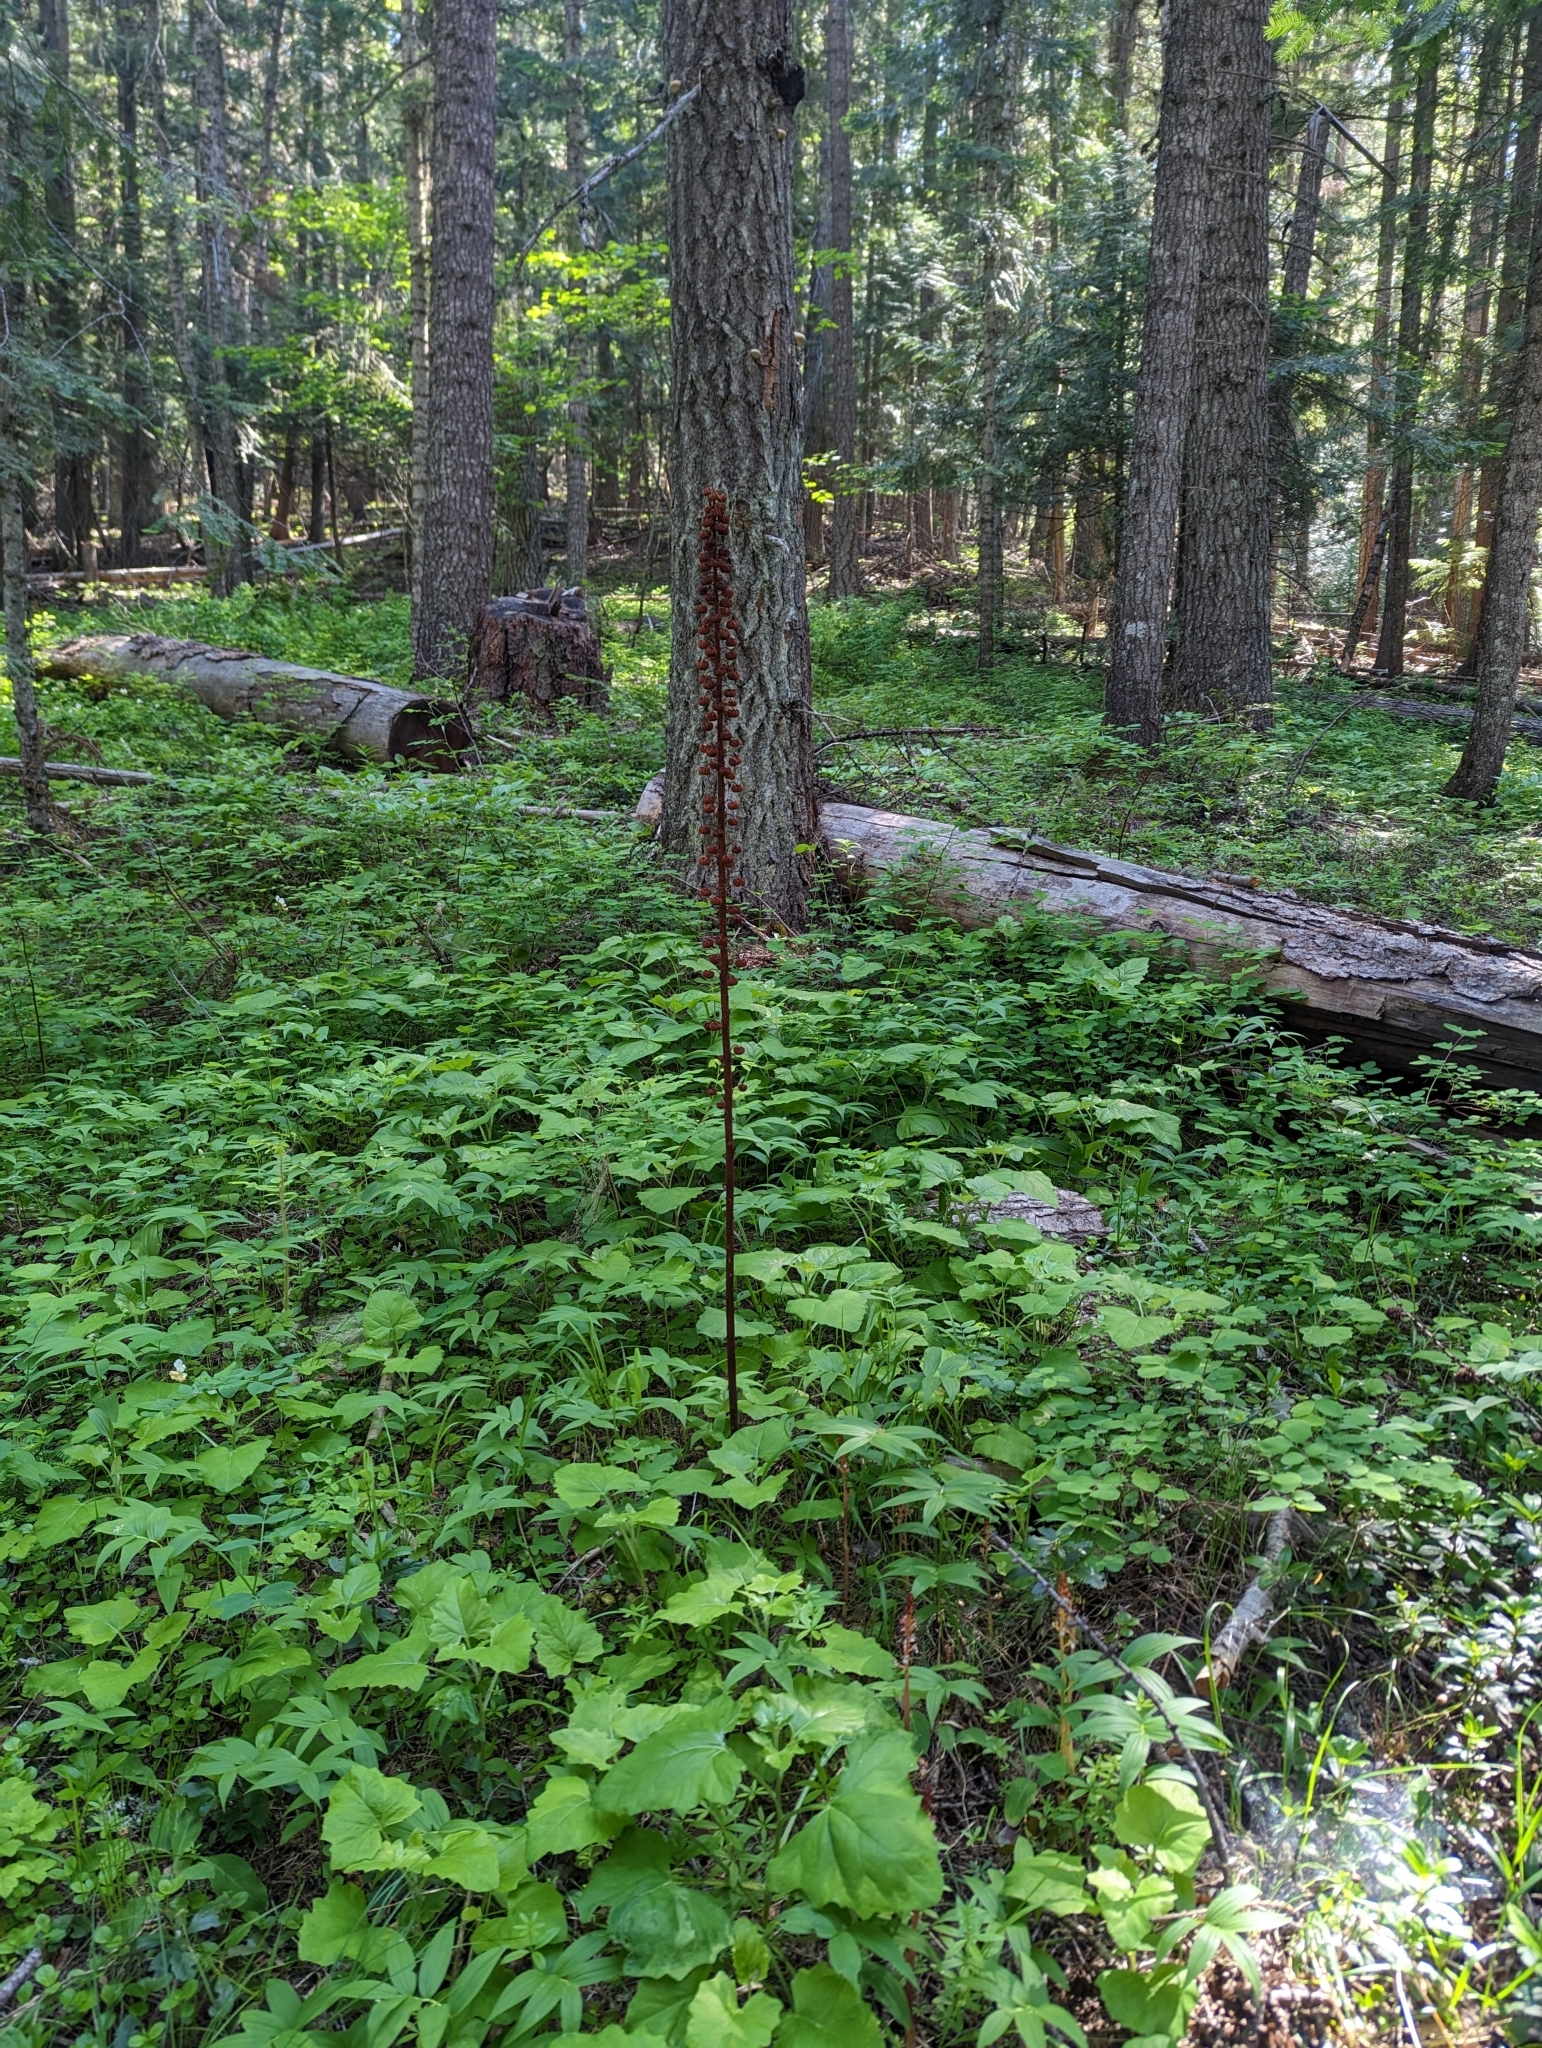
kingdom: Plantae
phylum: Tracheophyta
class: Magnoliopsida
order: Ericales
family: Ericaceae
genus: Pterospora
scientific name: Pterospora andromedea
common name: Giant bird's-nest
